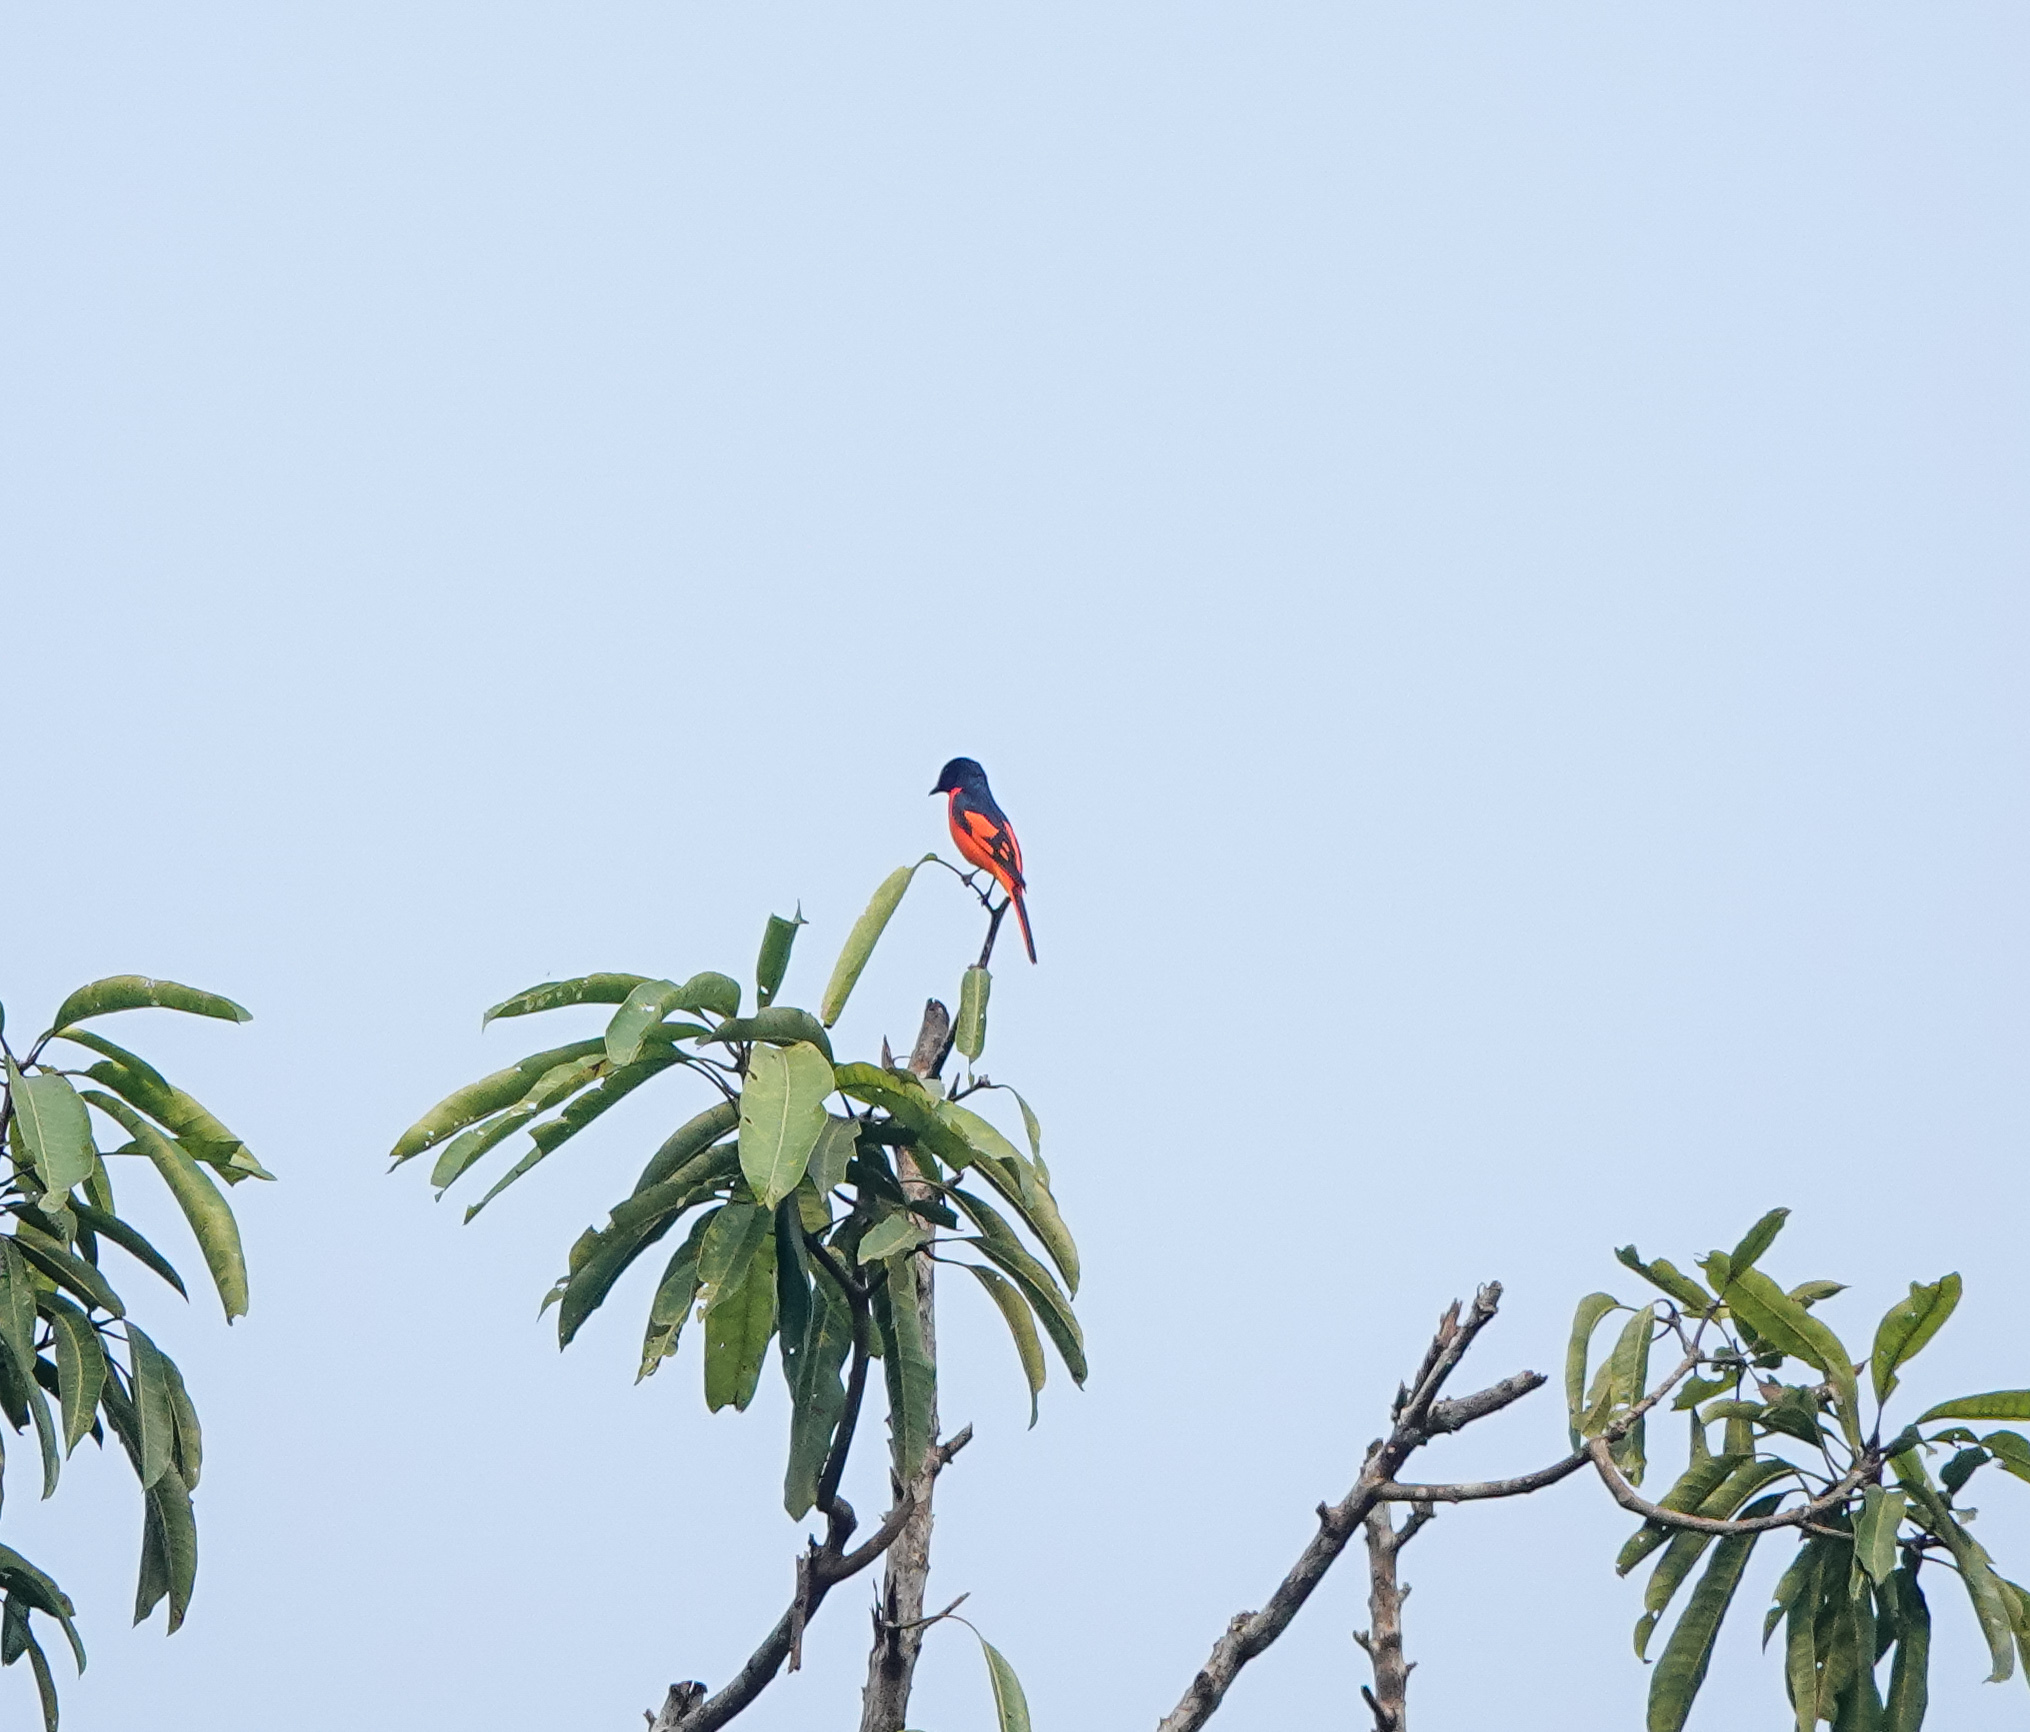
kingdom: Animalia
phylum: Chordata
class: Aves
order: Passeriformes
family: Campephagidae
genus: Pericrocotus
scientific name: Pericrocotus speciosus
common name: Scarlet minivet
